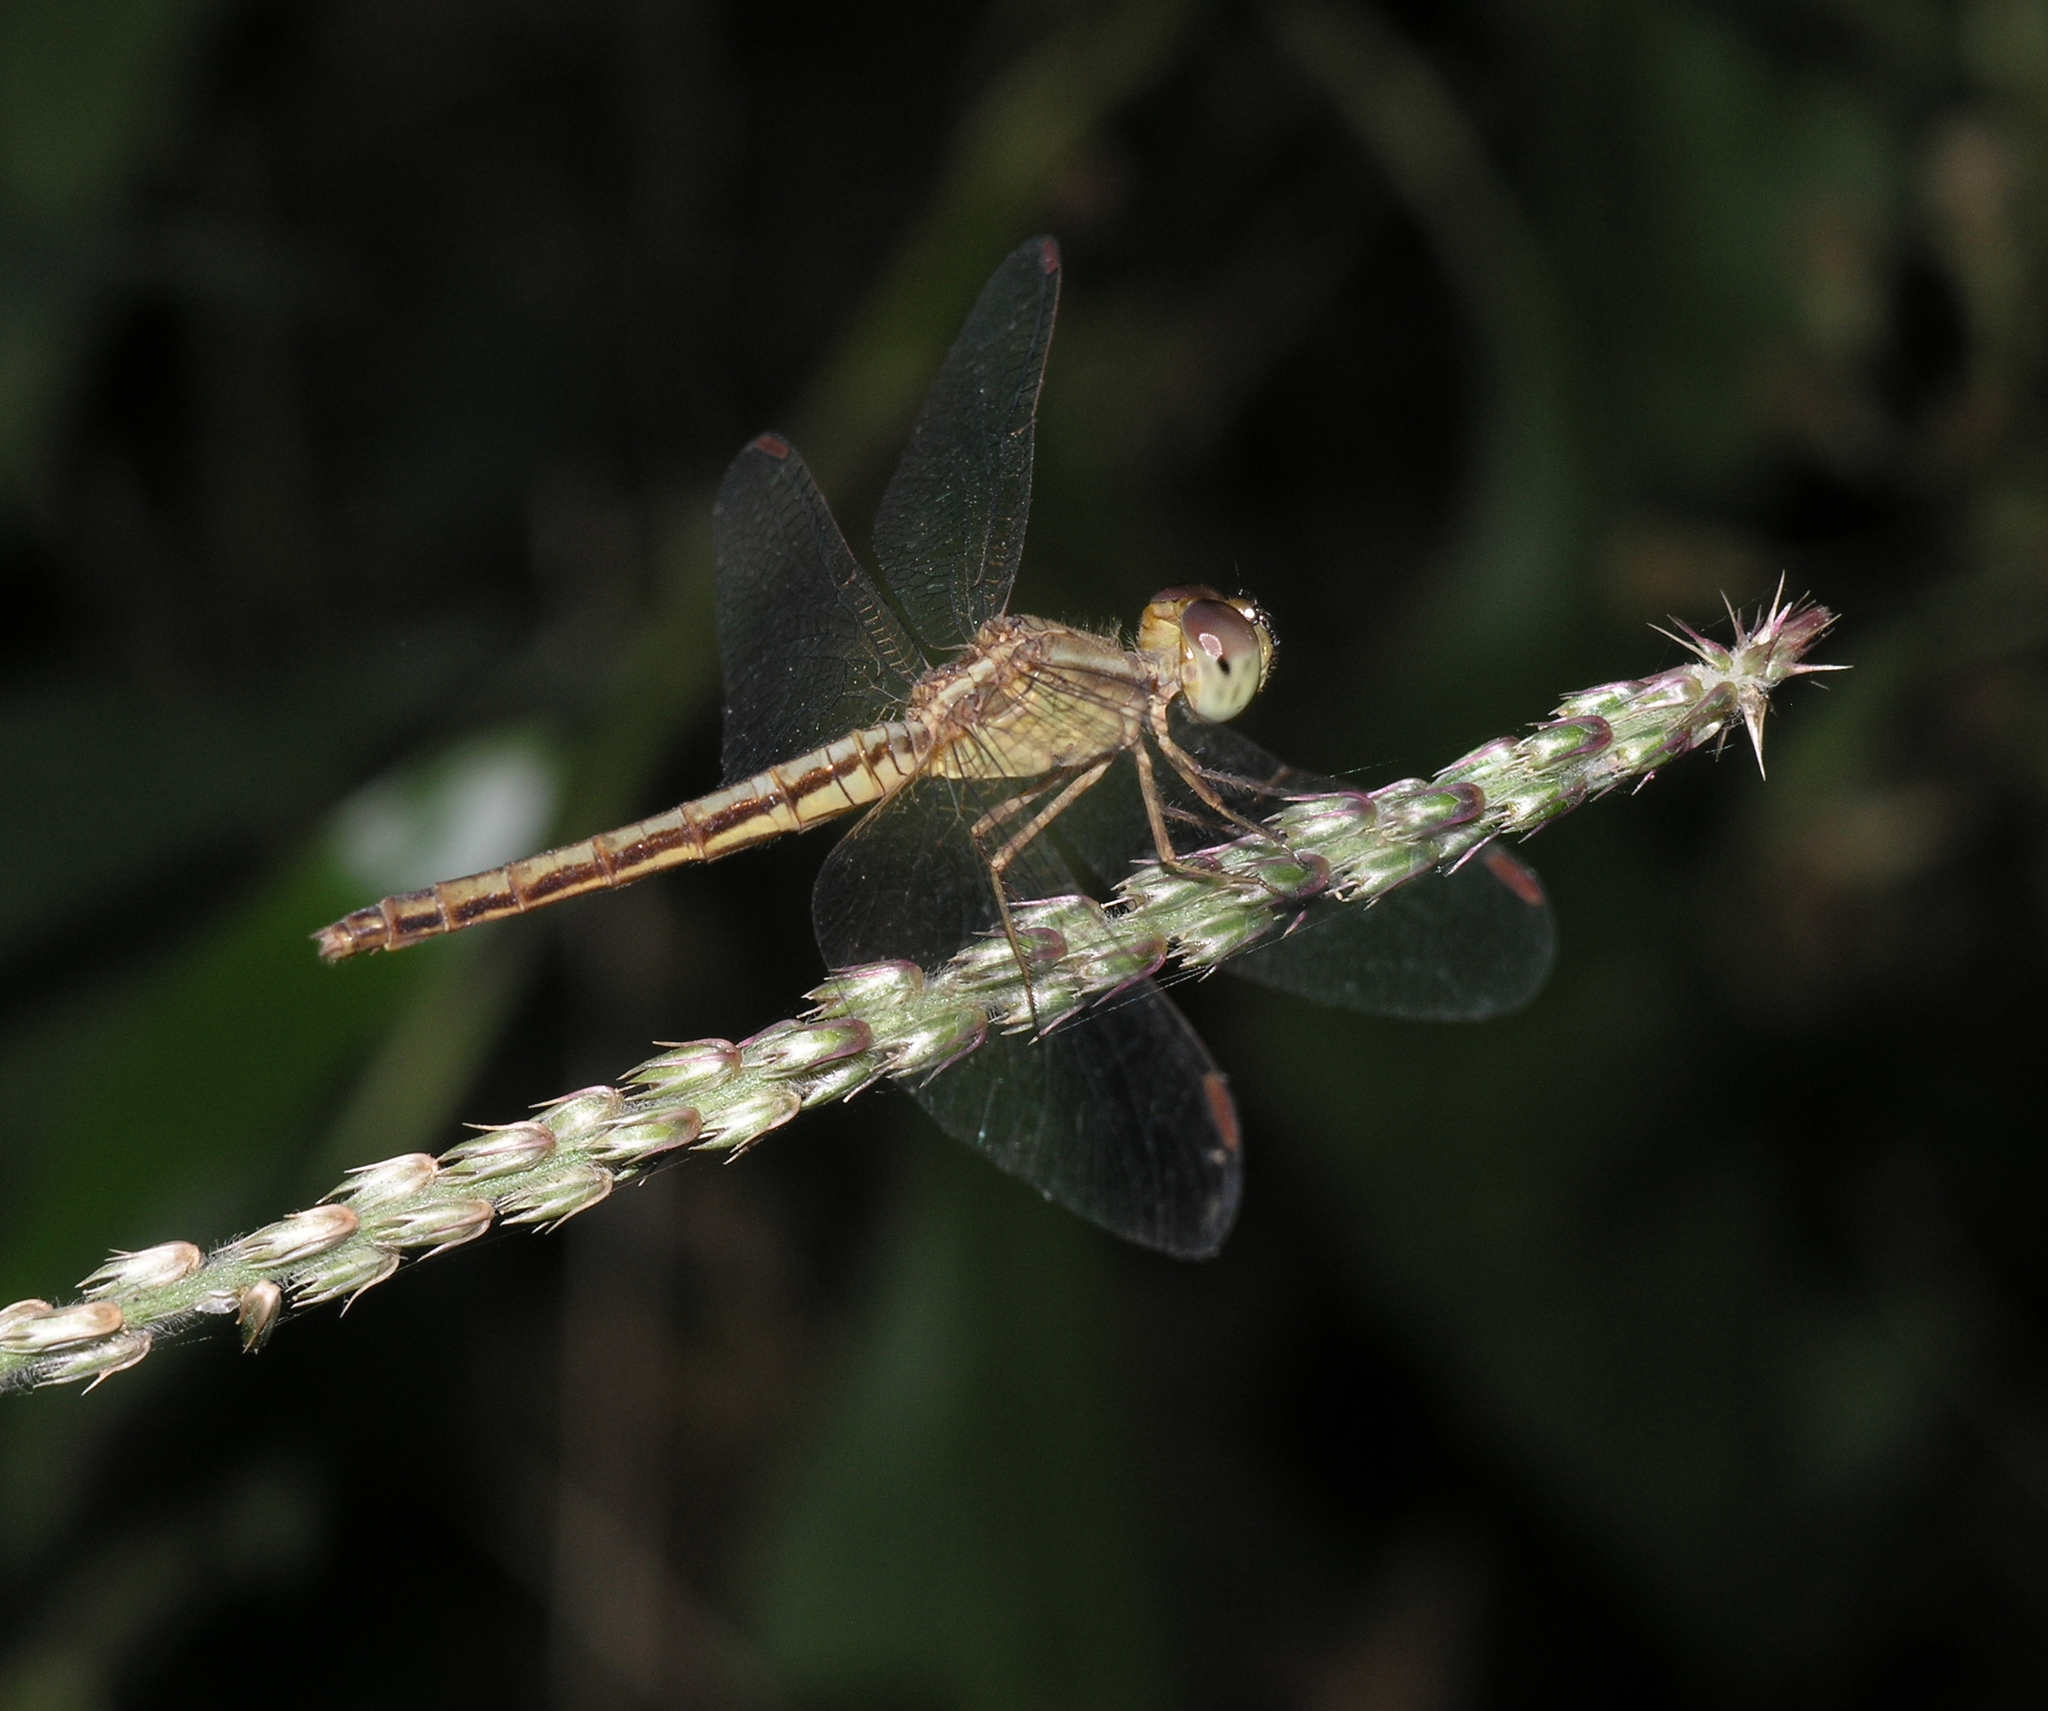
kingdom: Animalia
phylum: Arthropoda
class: Insecta
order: Odonata
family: Libellulidae
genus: Neurothemis
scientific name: Neurothemis intermedia
